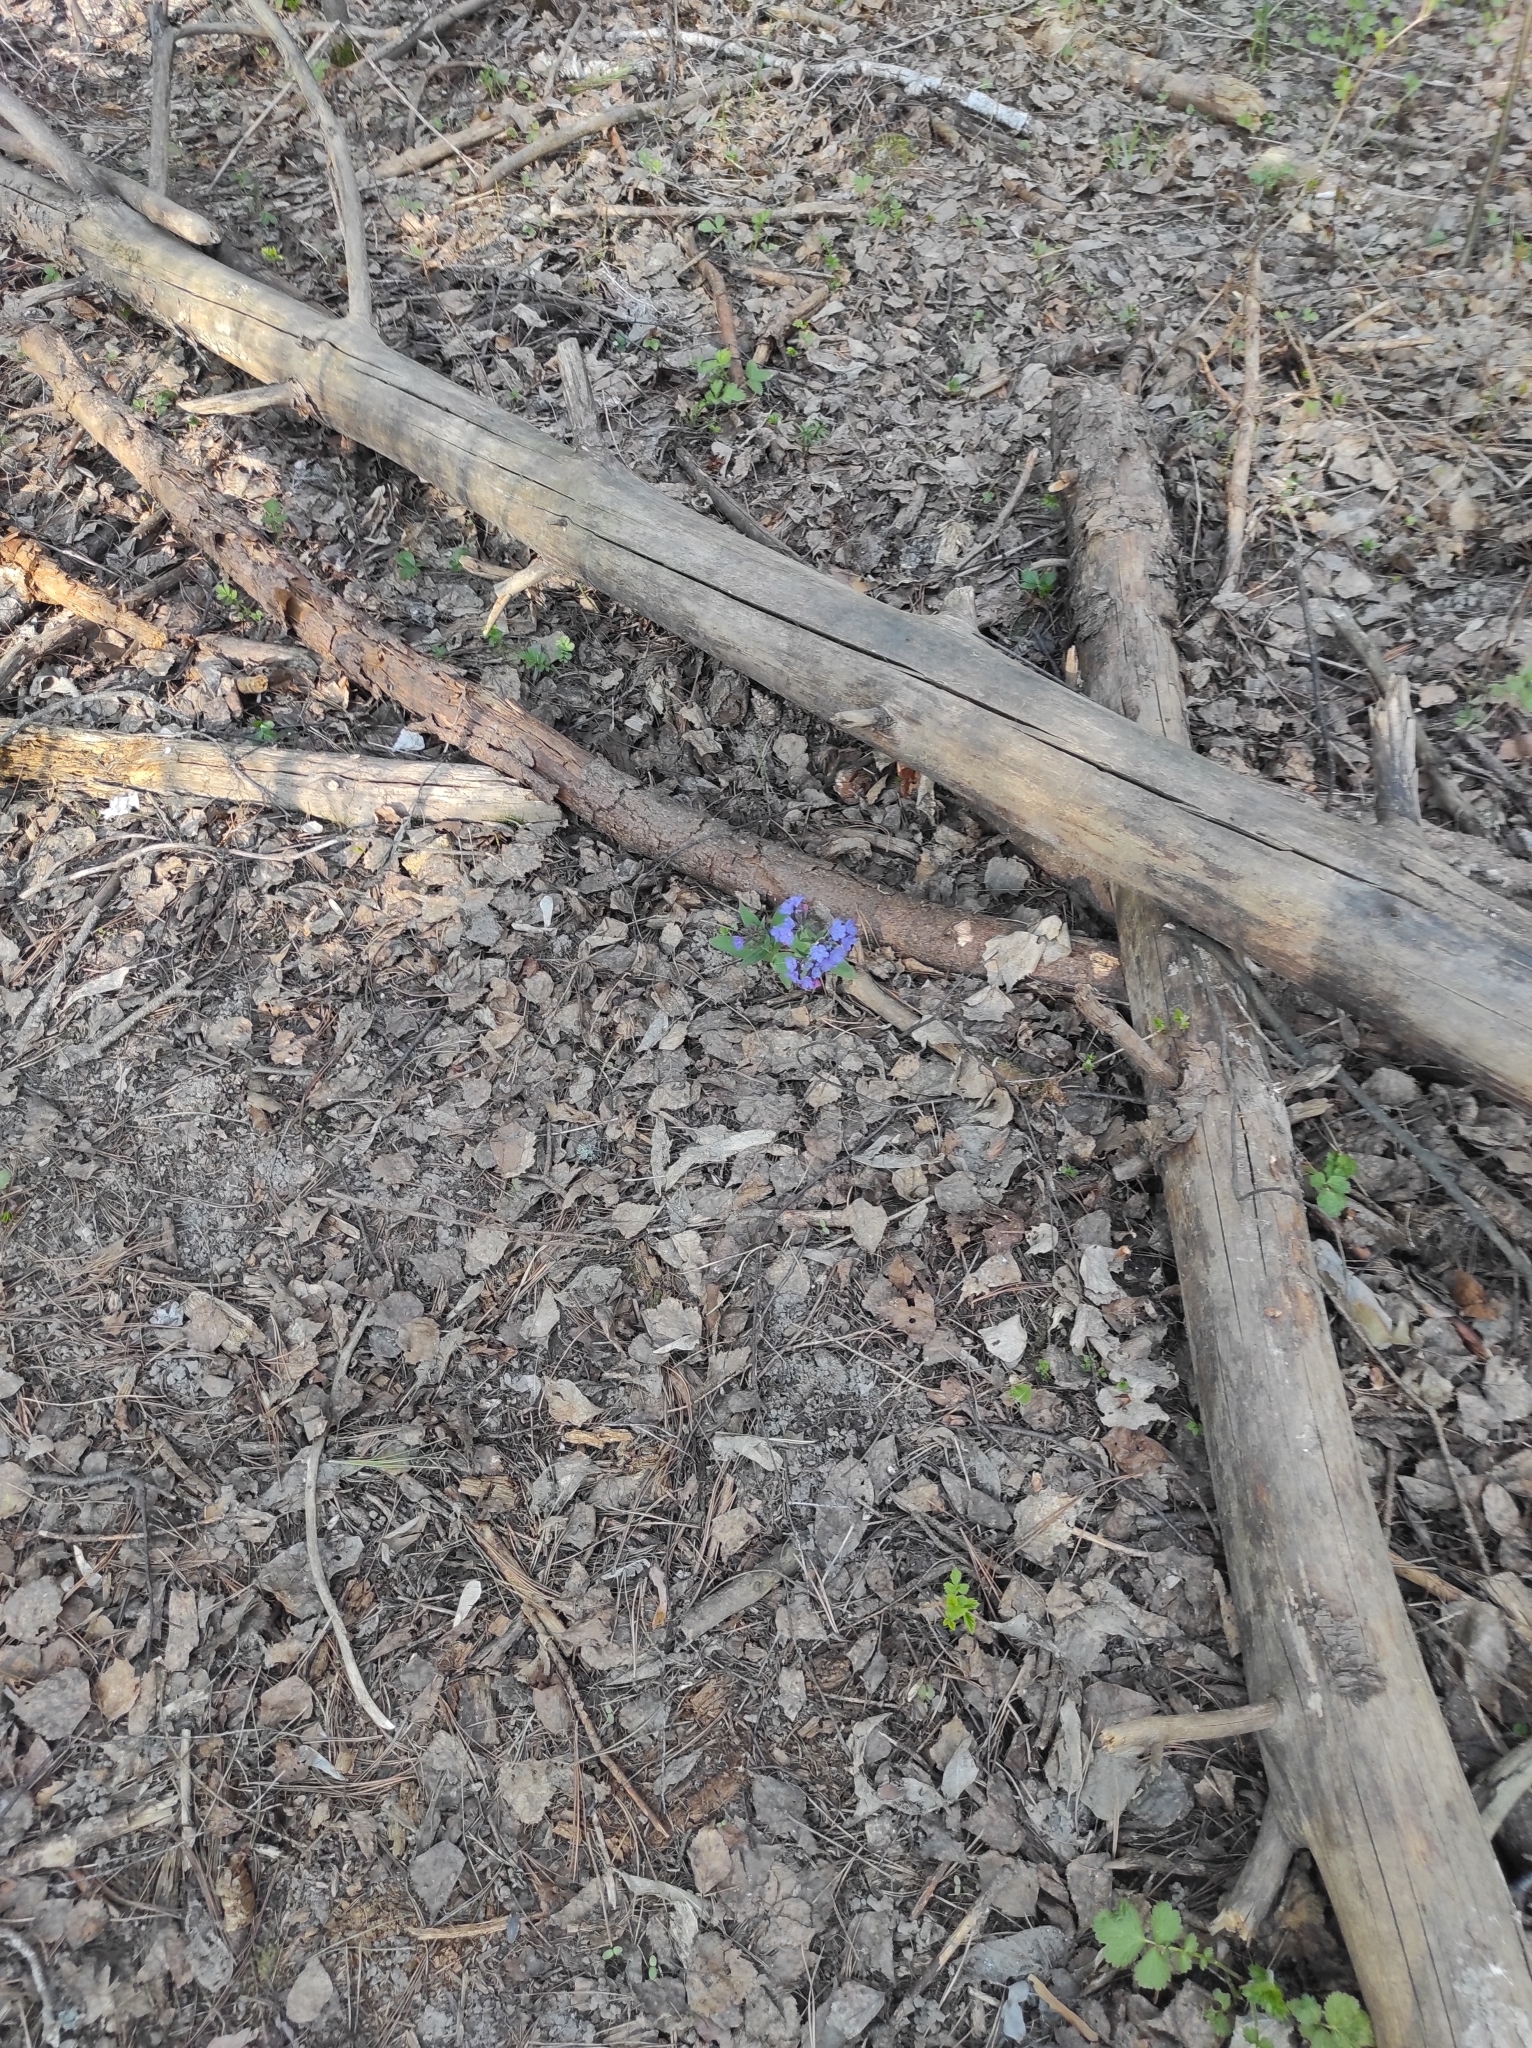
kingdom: Plantae
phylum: Tracheophyta
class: Magnoliopsida
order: Boraginales
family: Boraginaceae
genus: Pulmonaria
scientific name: Pulmonaria mollis
